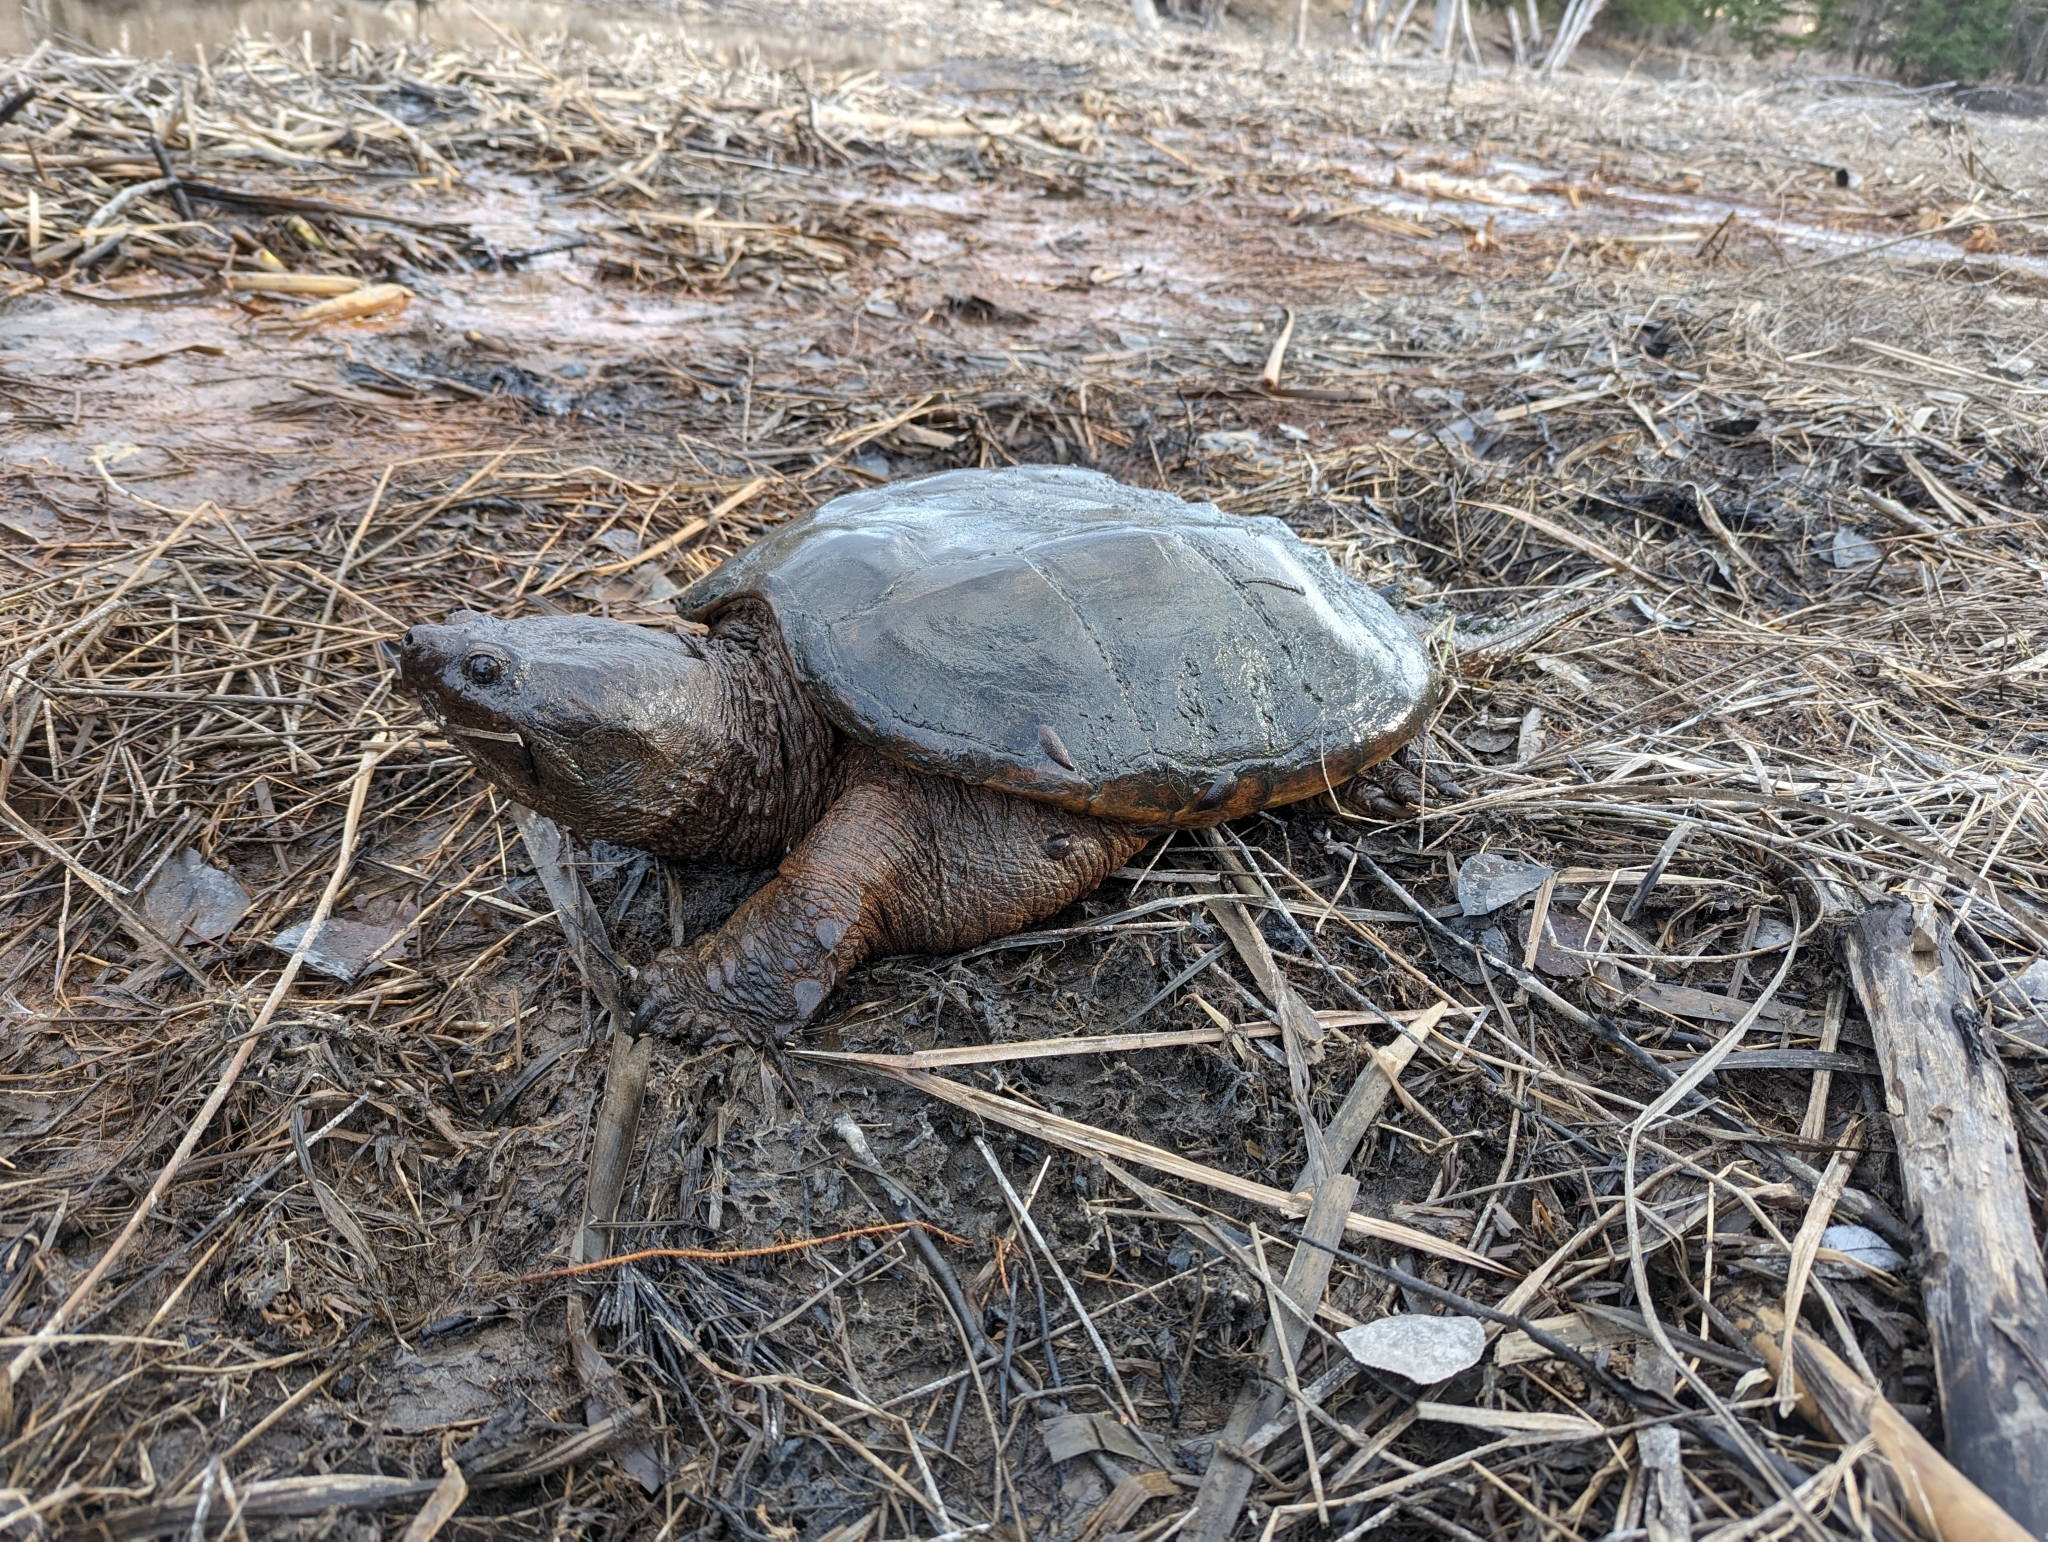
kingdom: Animalia
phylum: Chordata
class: Testudines
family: Chelydridae
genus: Chelydra
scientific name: Chelydra serpentina
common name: Common snapping turtle
